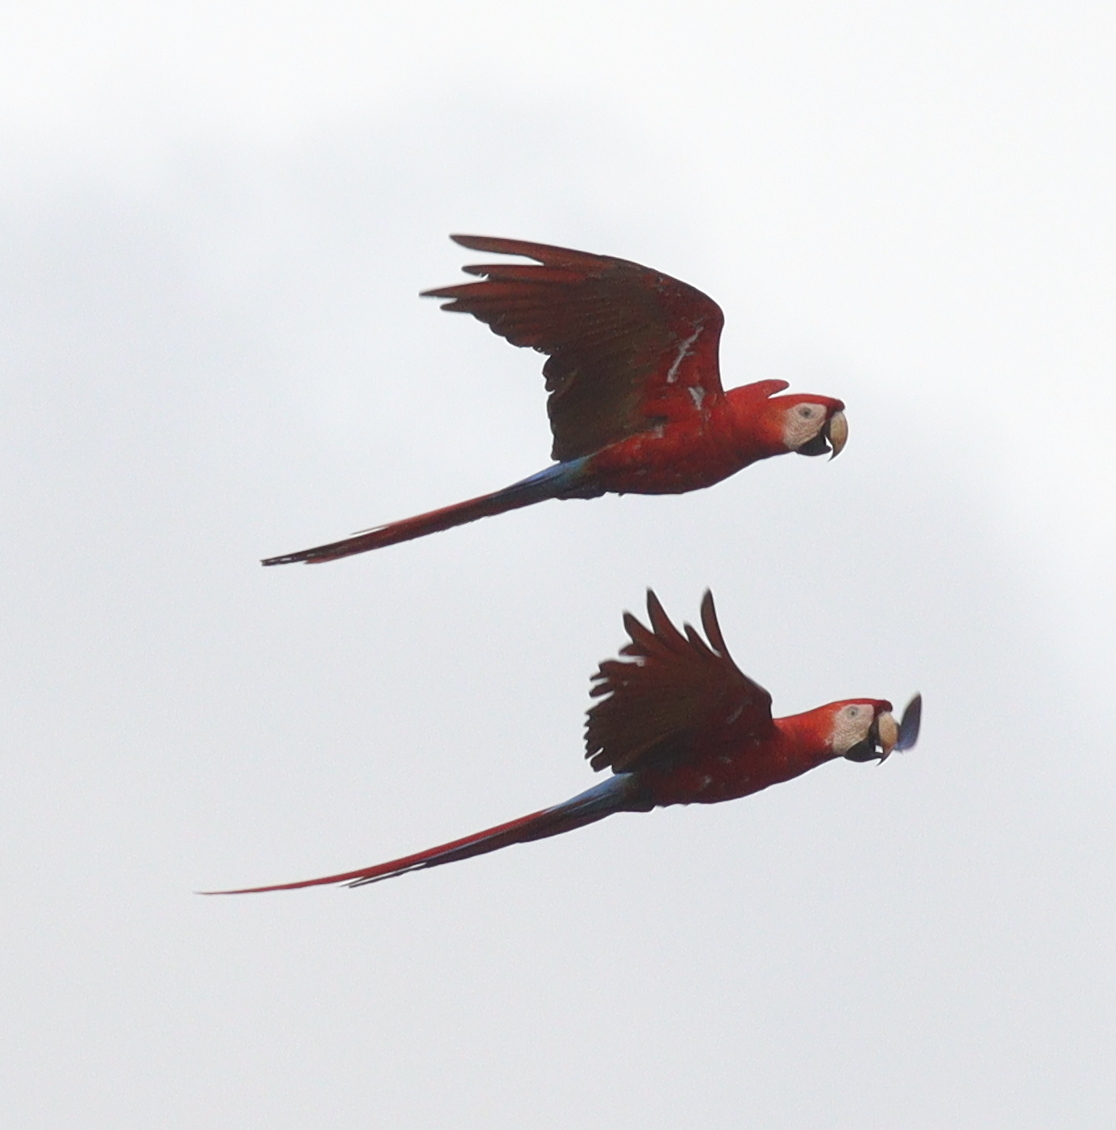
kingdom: Animalia
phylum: Chordata
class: Aves
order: Psittaciformes
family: Psittacidae
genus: Ara
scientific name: Ara macao
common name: Scarlet macaw
